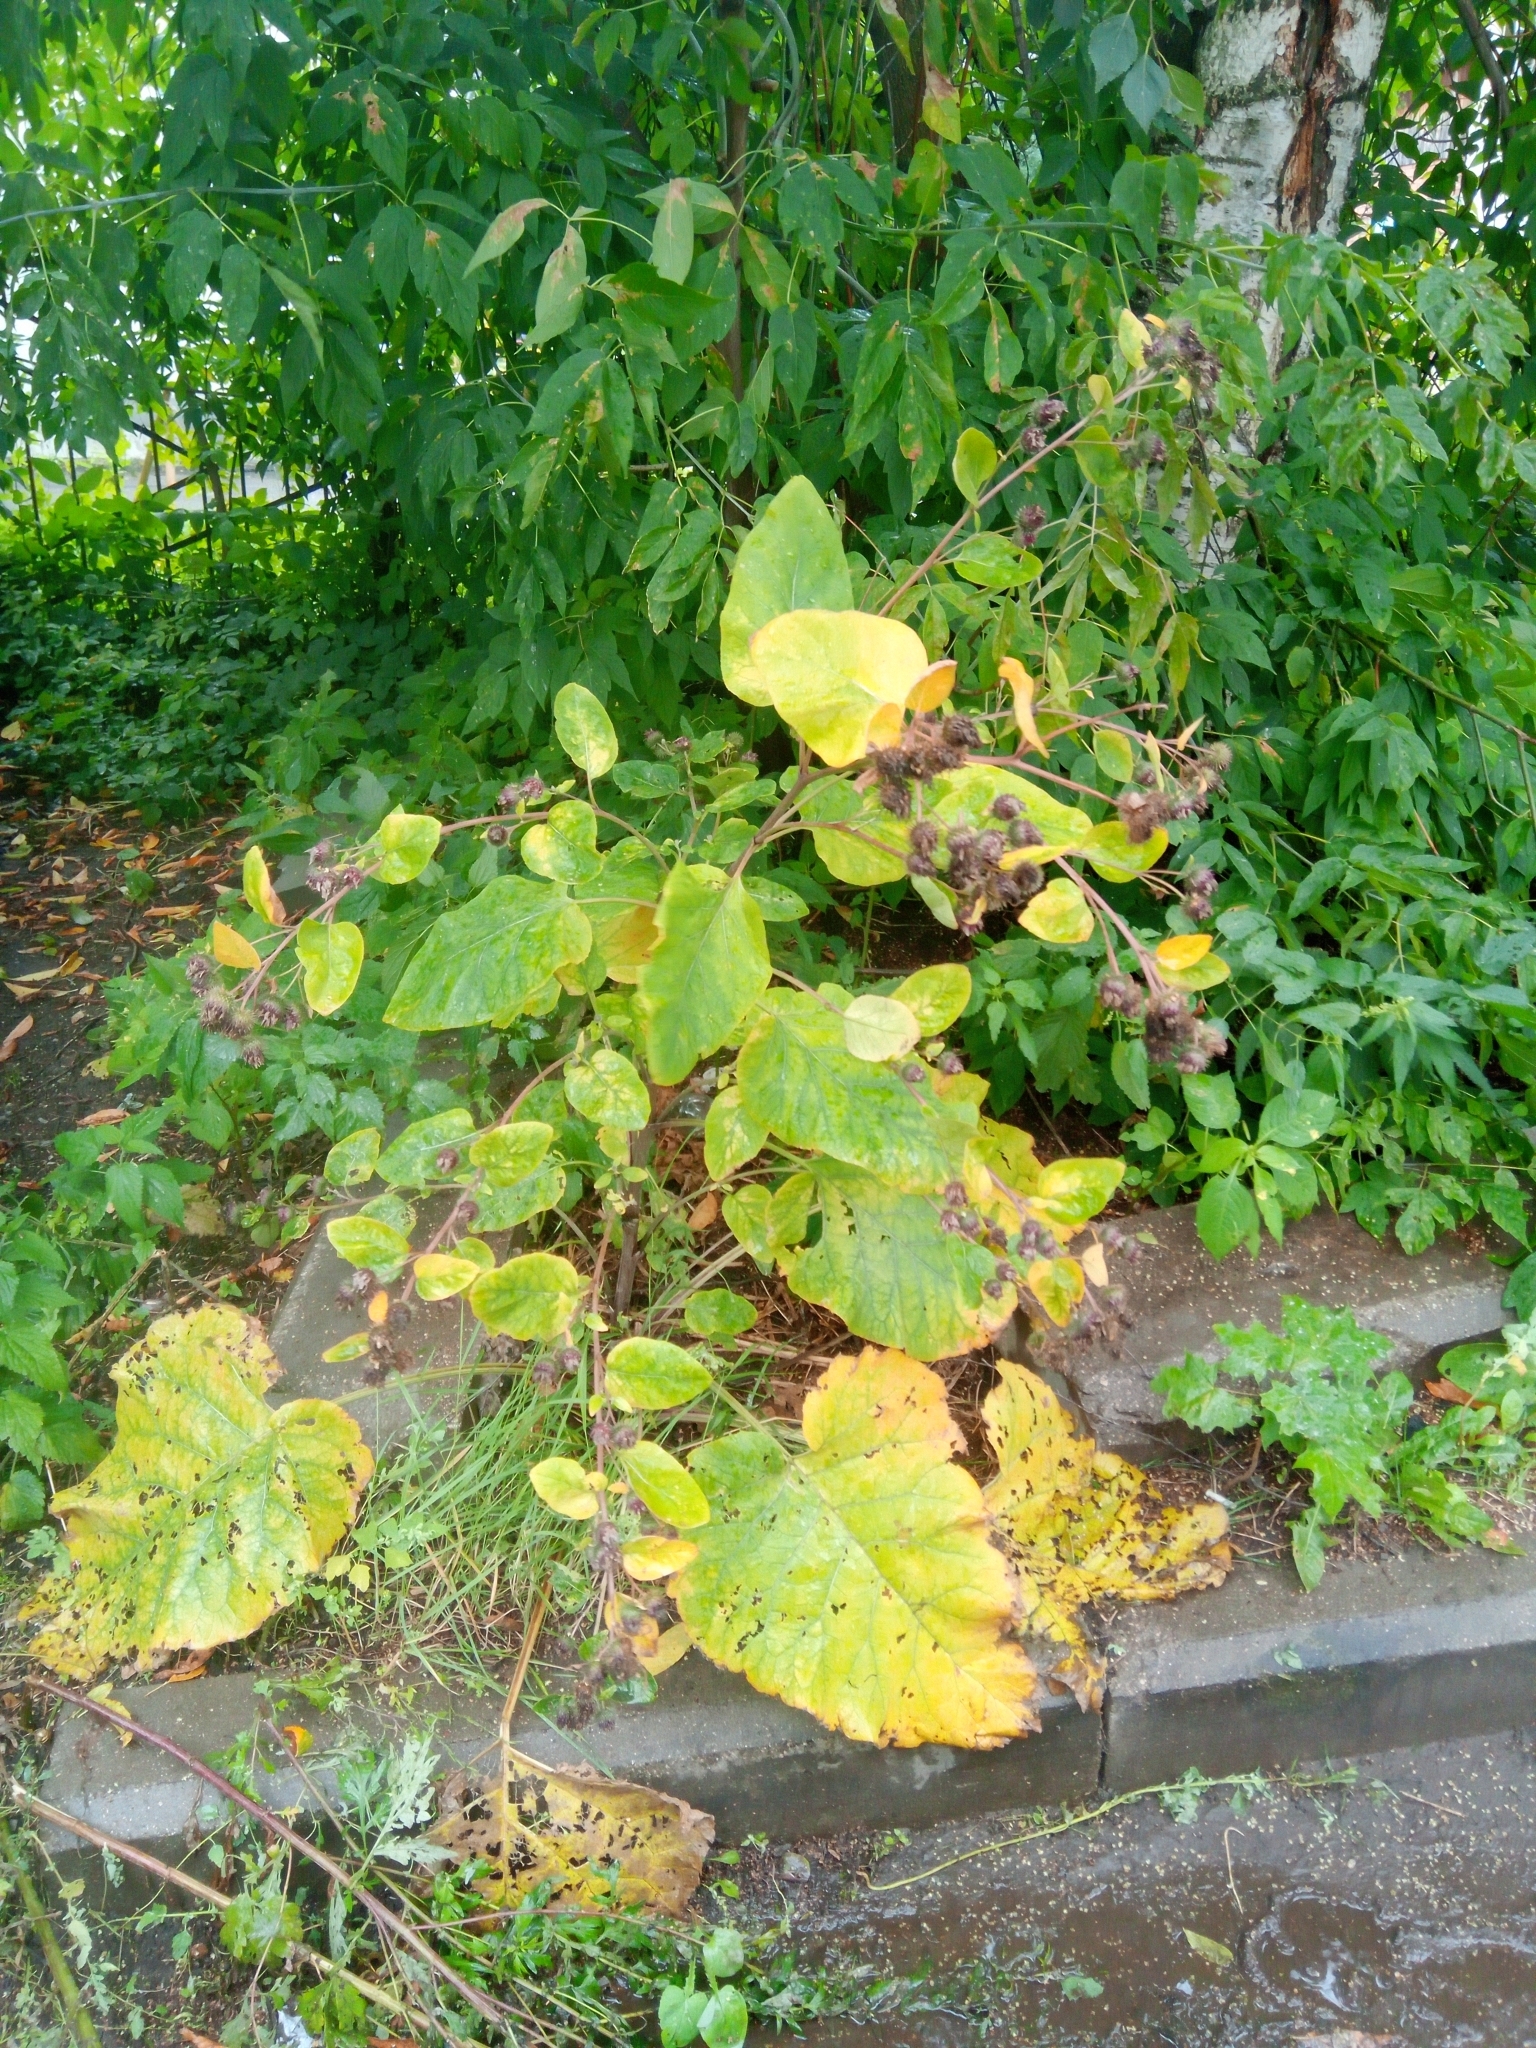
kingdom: Plantae
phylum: Tracheophyta
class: Magnoliopsida
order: Asterales
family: Asteraceae
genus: Arctium
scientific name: Arctium tomentosum
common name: Woolly burdock
